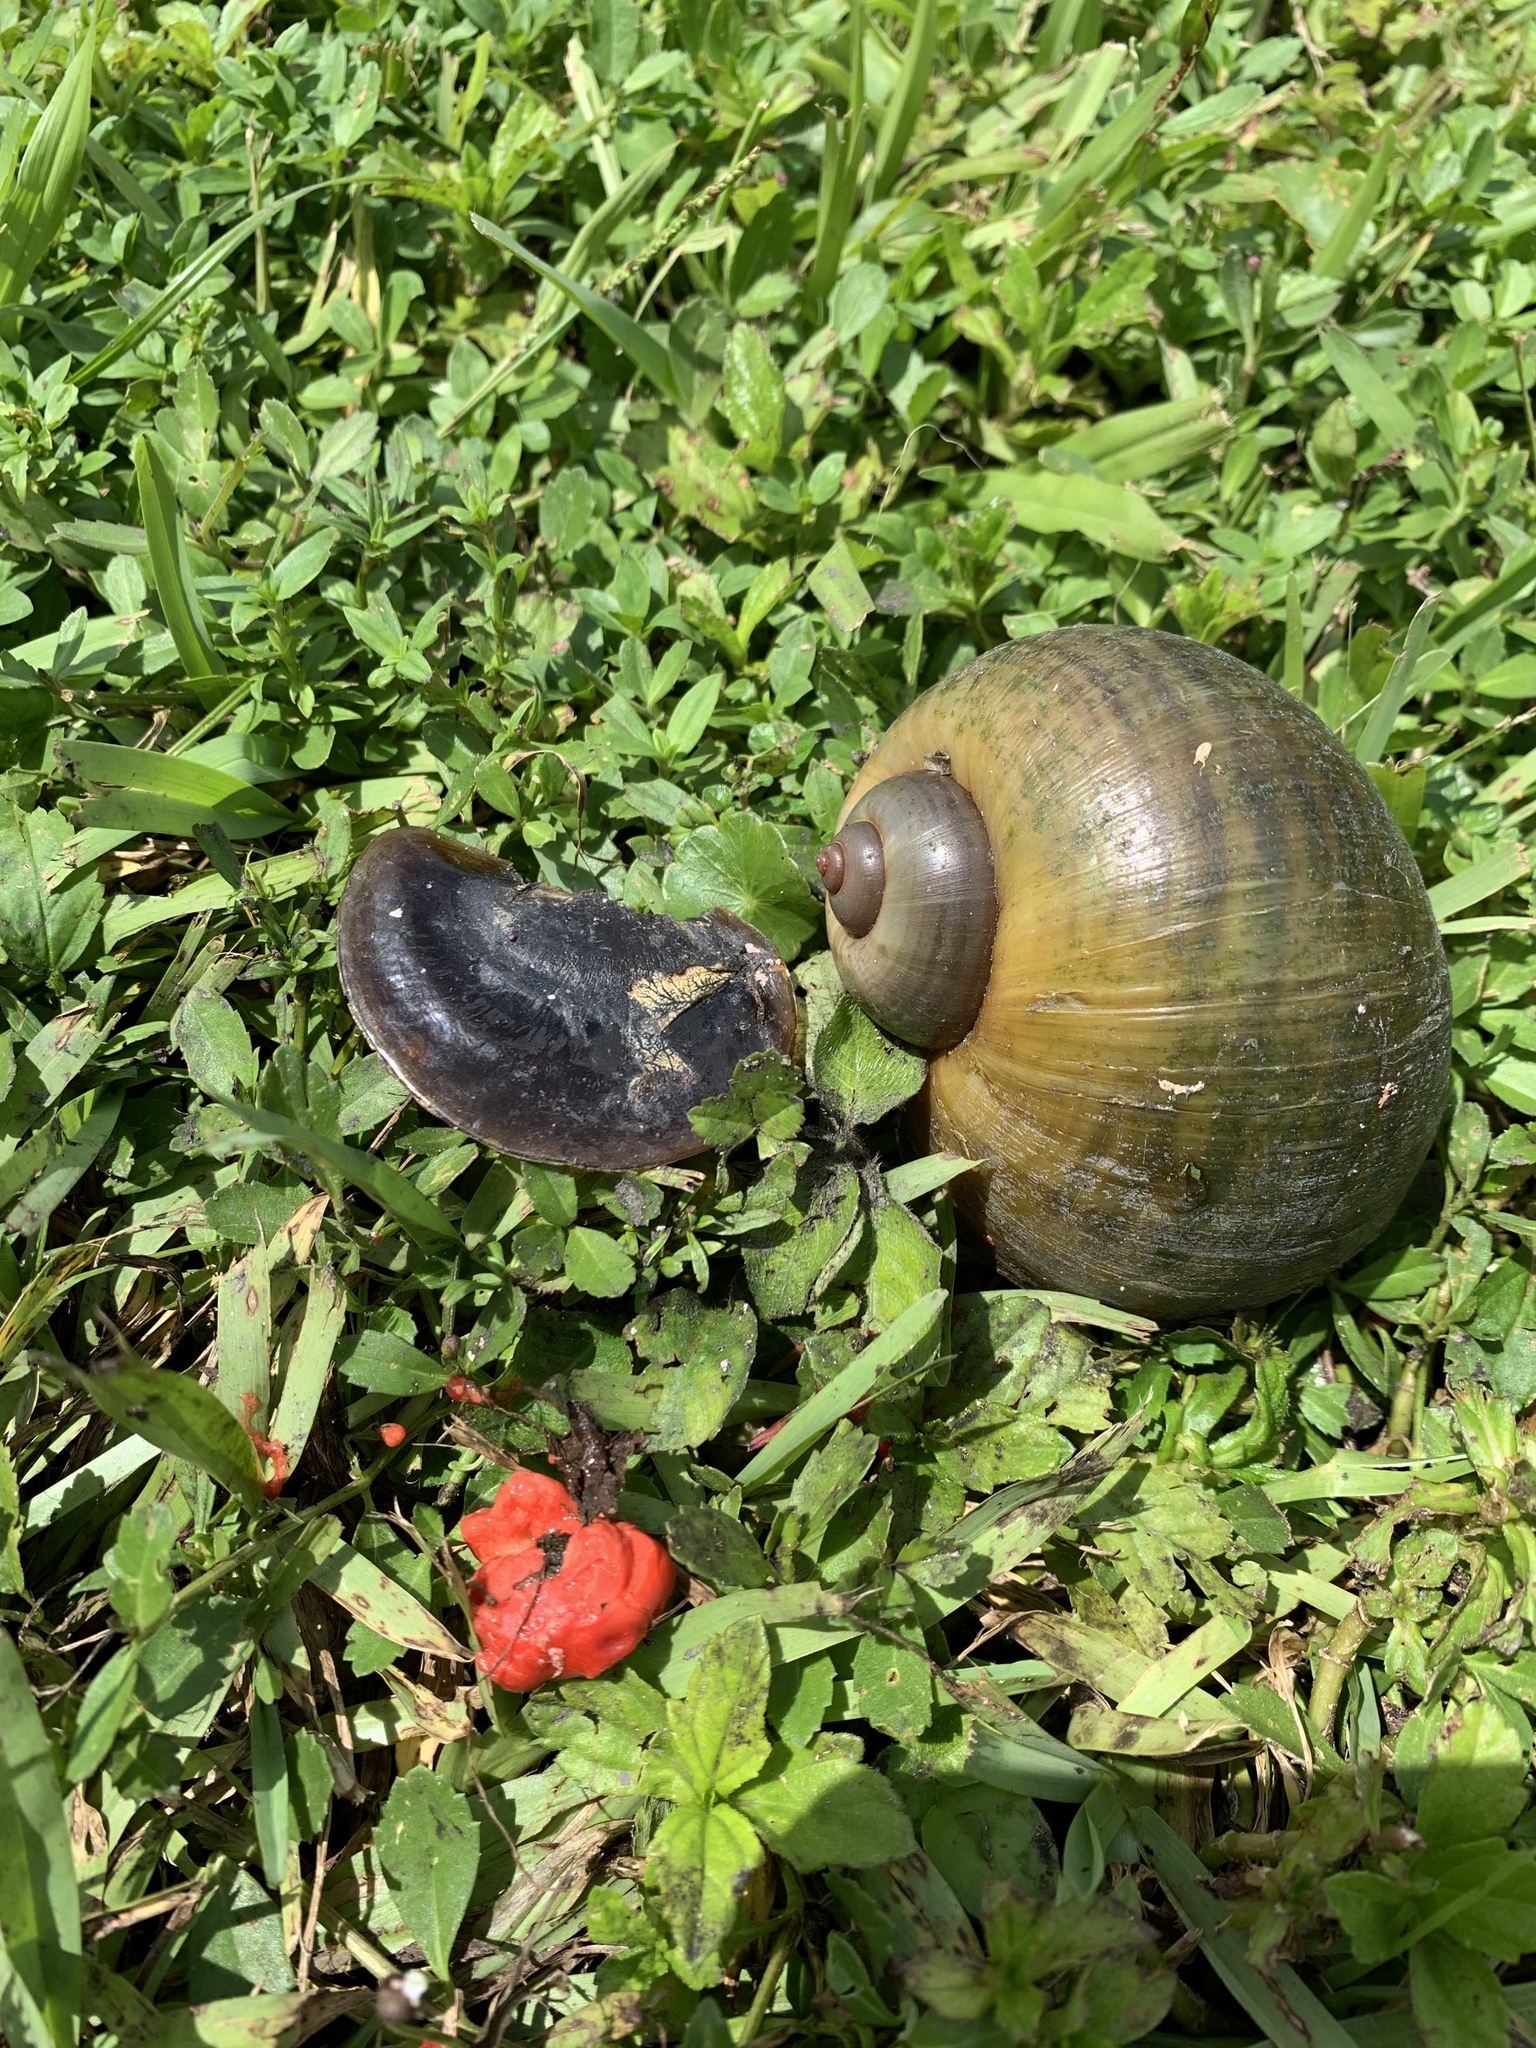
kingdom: Animalia
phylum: Mollusca
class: Gastropoda
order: Architaenioglossa
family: Ampullariidae
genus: Pomacea
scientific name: Pomacea maculata
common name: Giant applesnail
